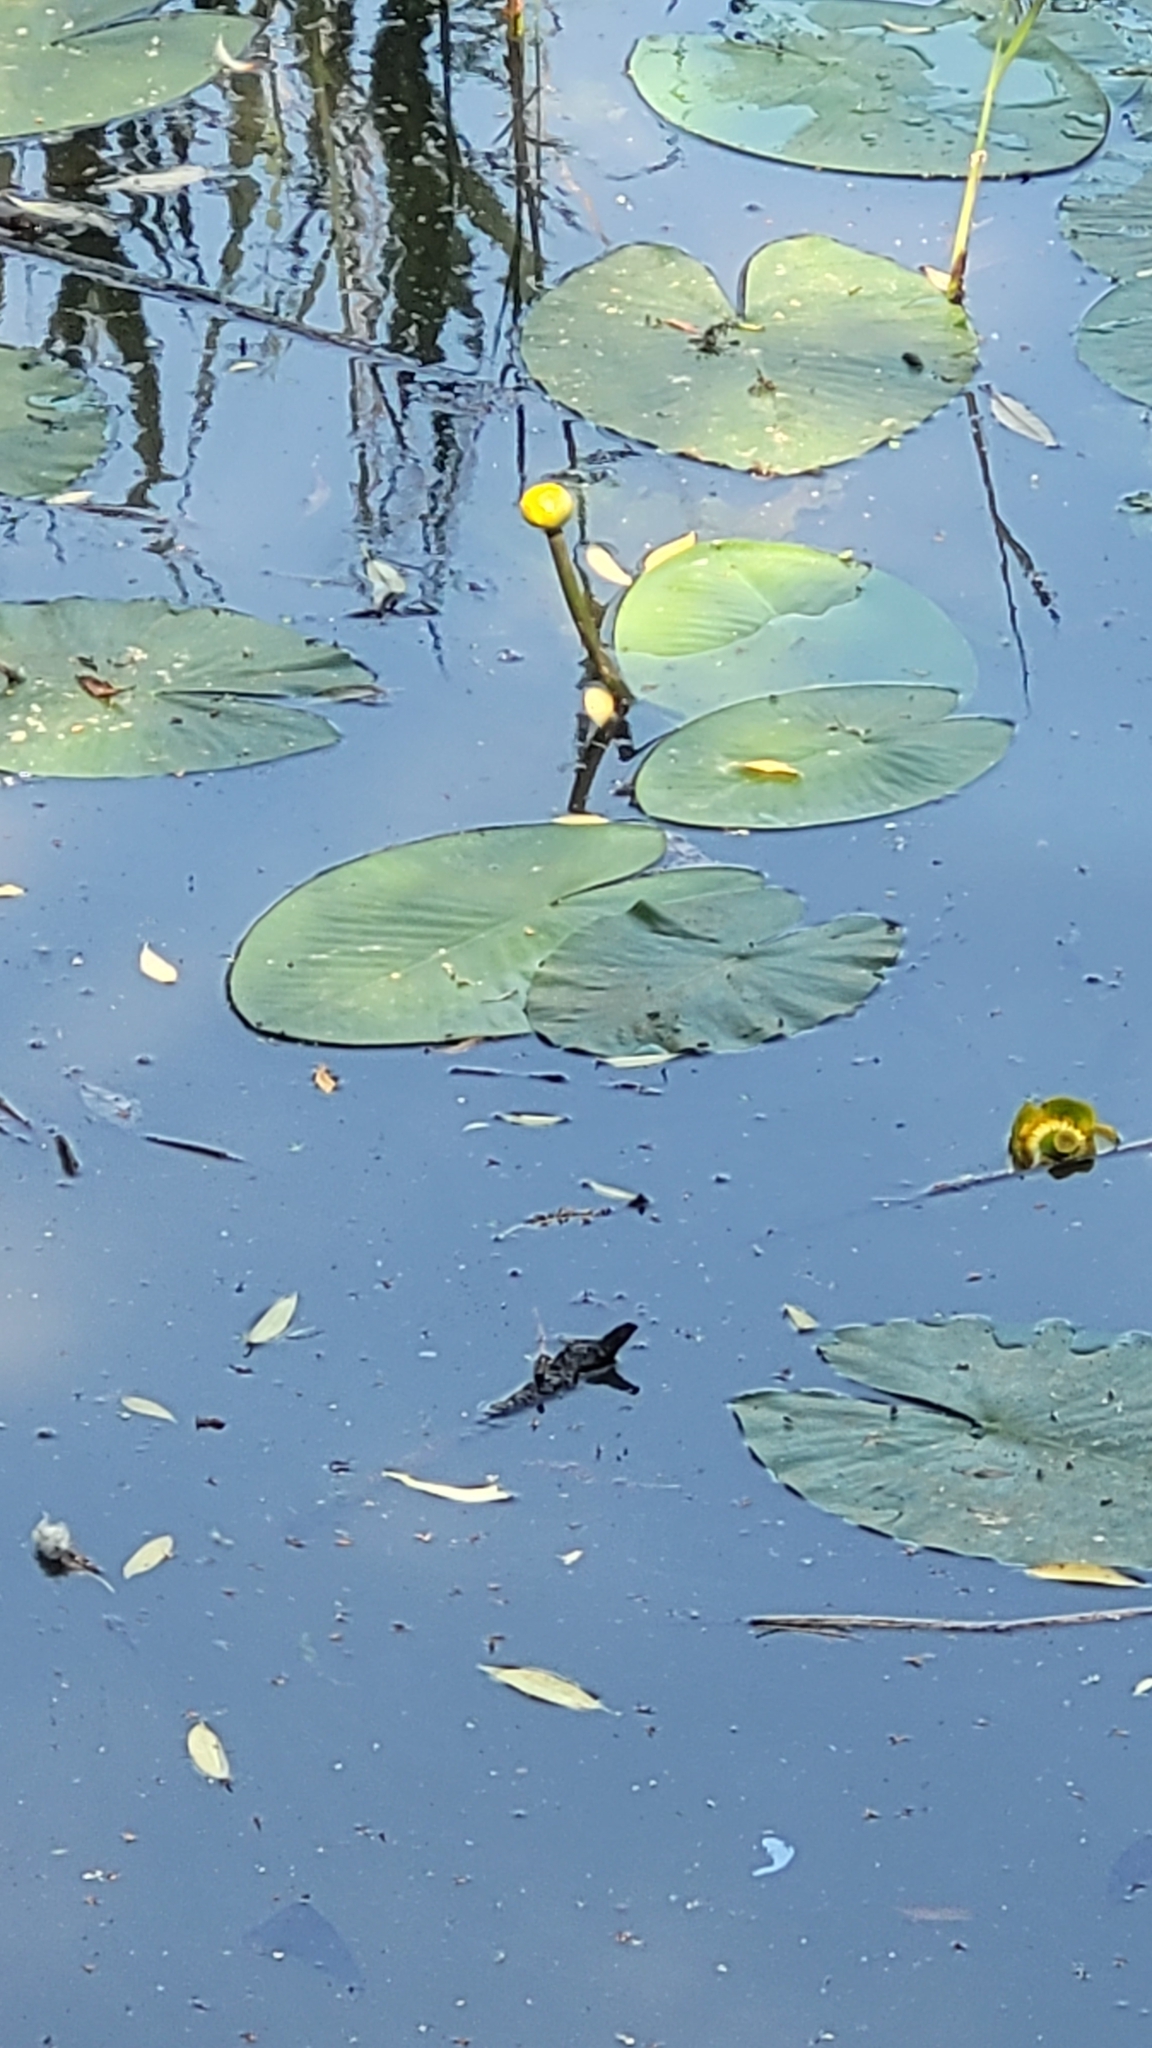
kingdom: Plantae
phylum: Tracheophyta
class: Magnoliopsida
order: Nymphaeales
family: Nymphaeaceae
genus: Nuphar
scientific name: Nuphar lutea
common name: Yellow water-lily
